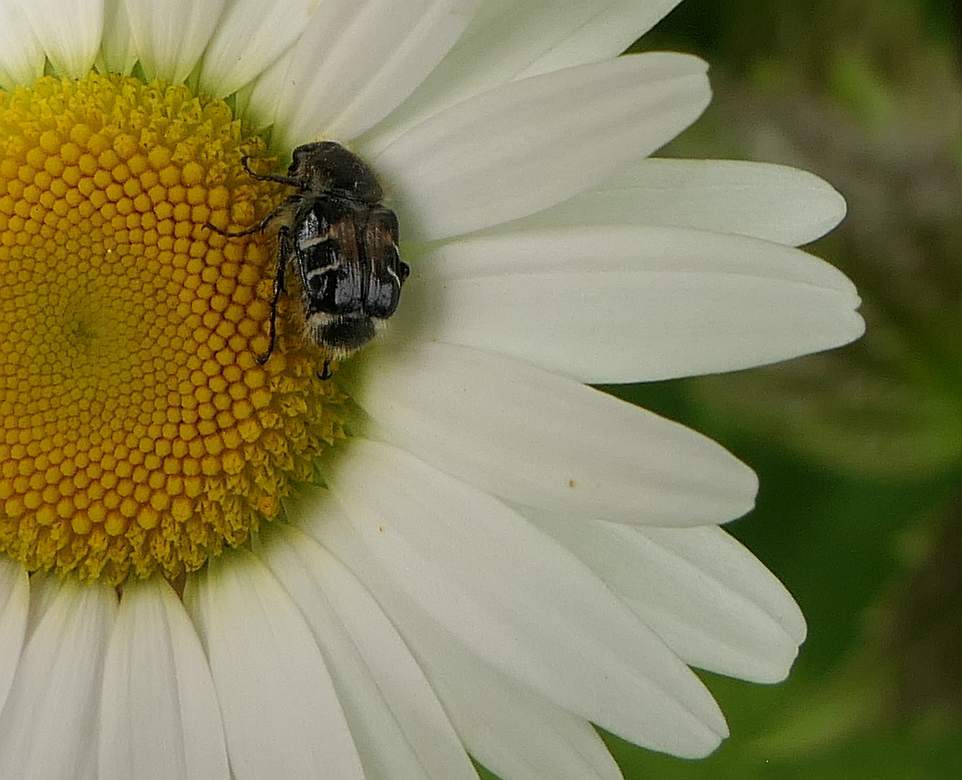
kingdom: Animalia
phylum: Arthropoda
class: Insecta
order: Coleoptera
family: Scarabaeidae
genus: Trichiotinus
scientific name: Trichiotinus assimilis
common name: Bee-mimic beetle
